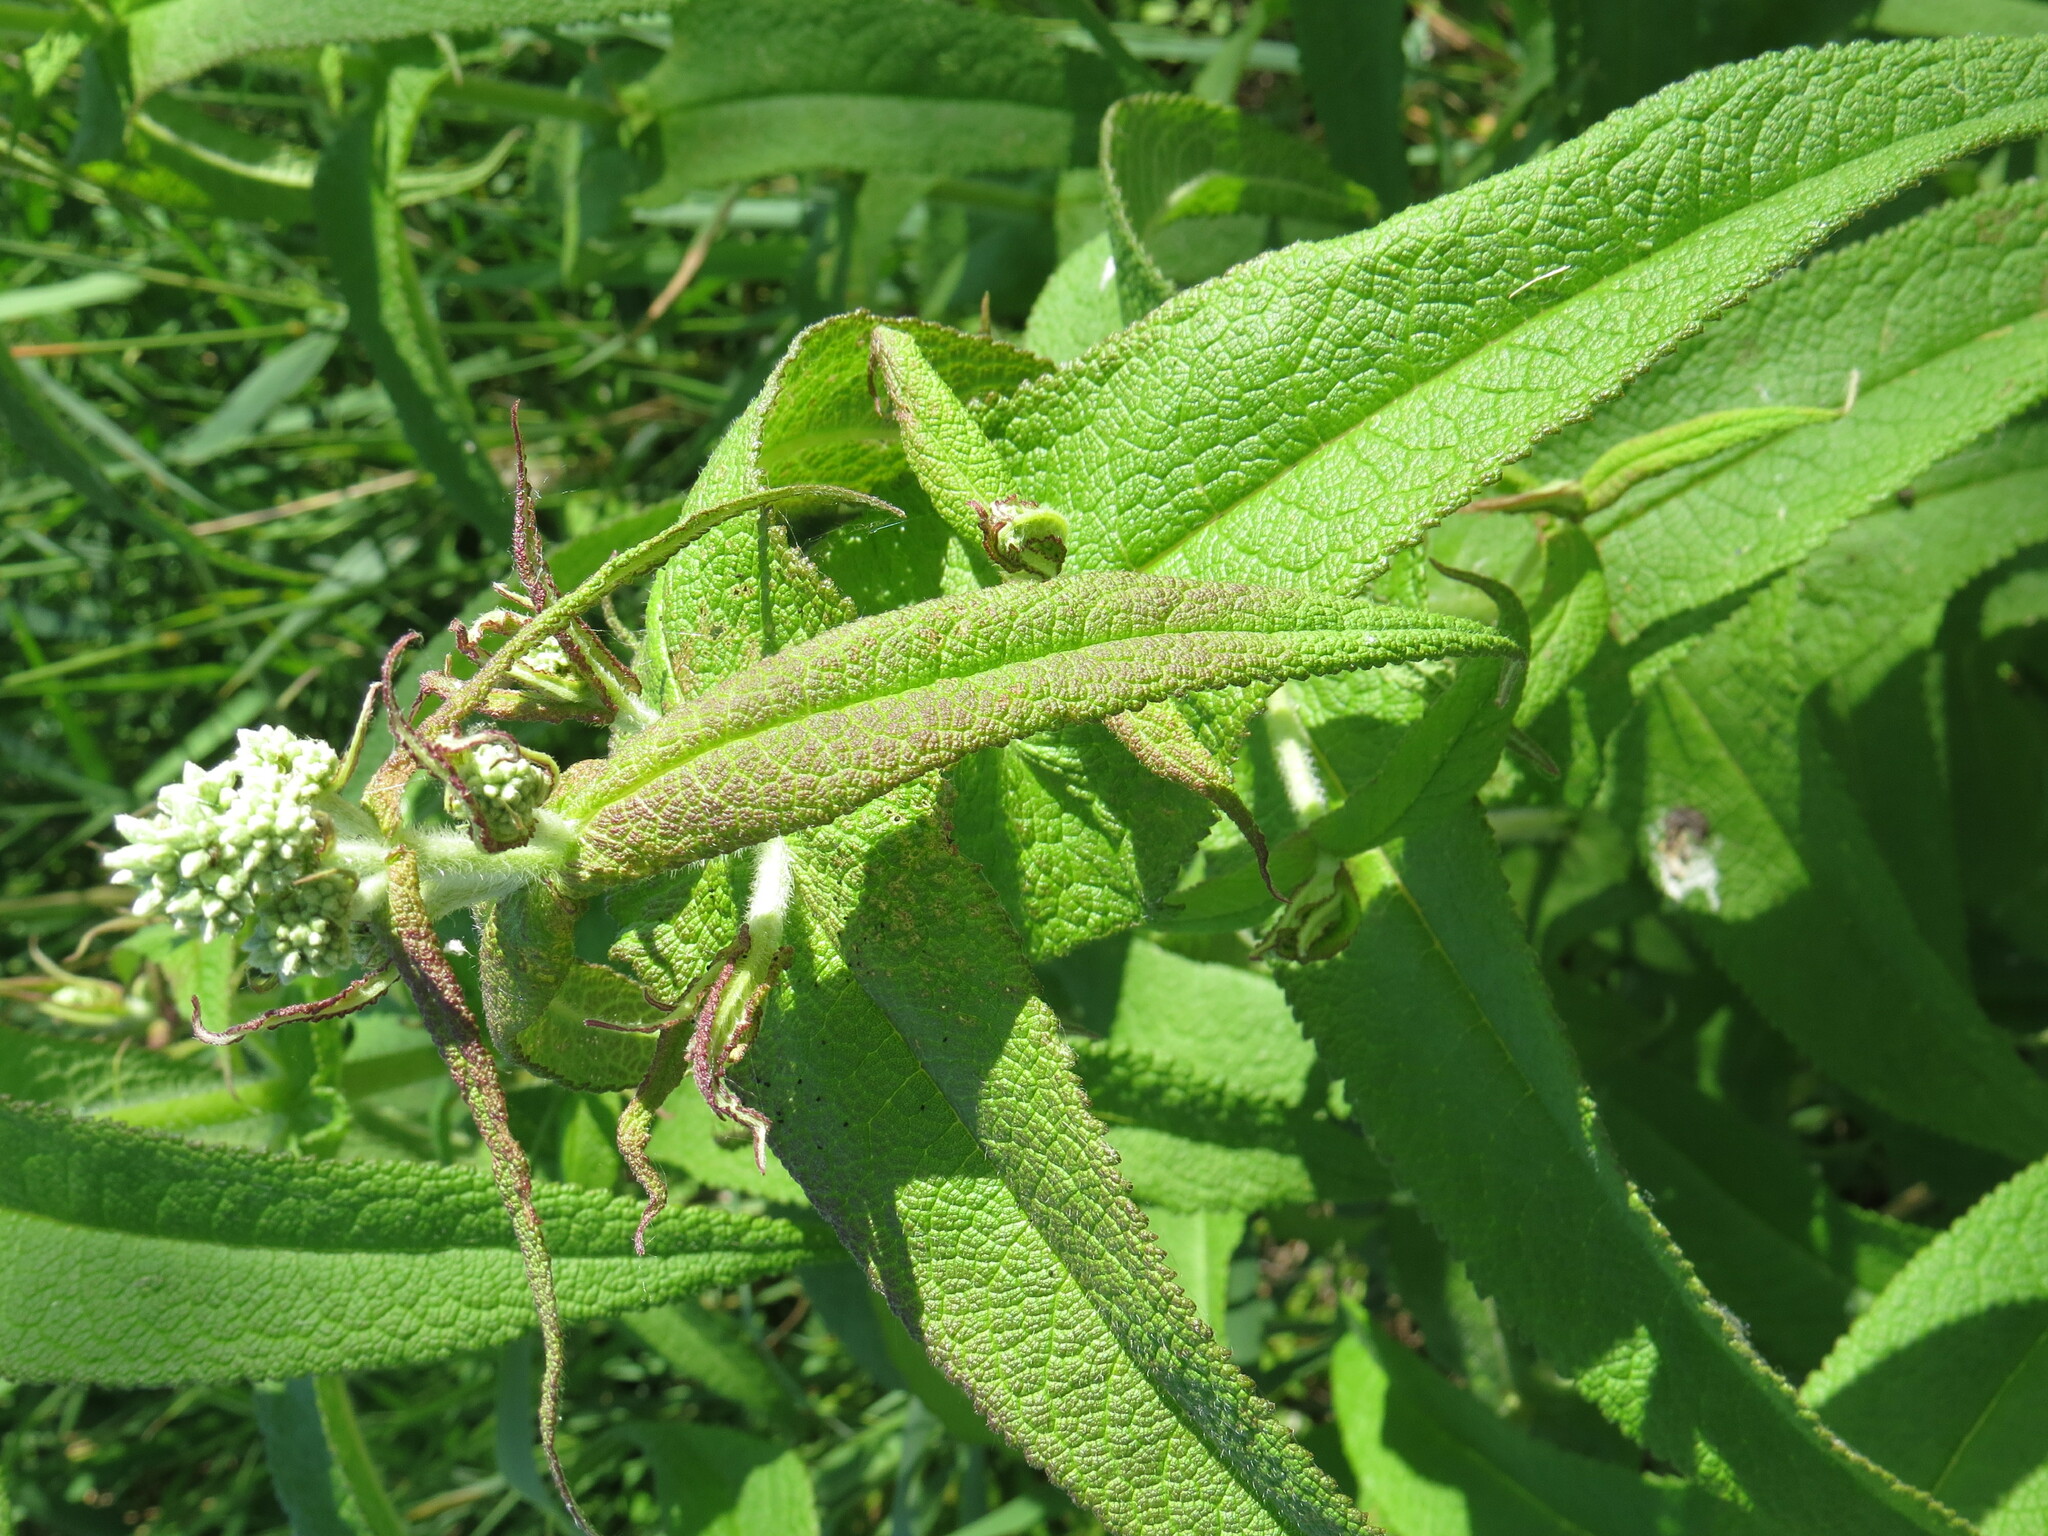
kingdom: Plantae
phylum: Tracheophyta
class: Magnoliopsida
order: Asterales
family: Asteraceae
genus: Eupatorium
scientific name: Eupatorium perfoliatum
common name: Boneset
